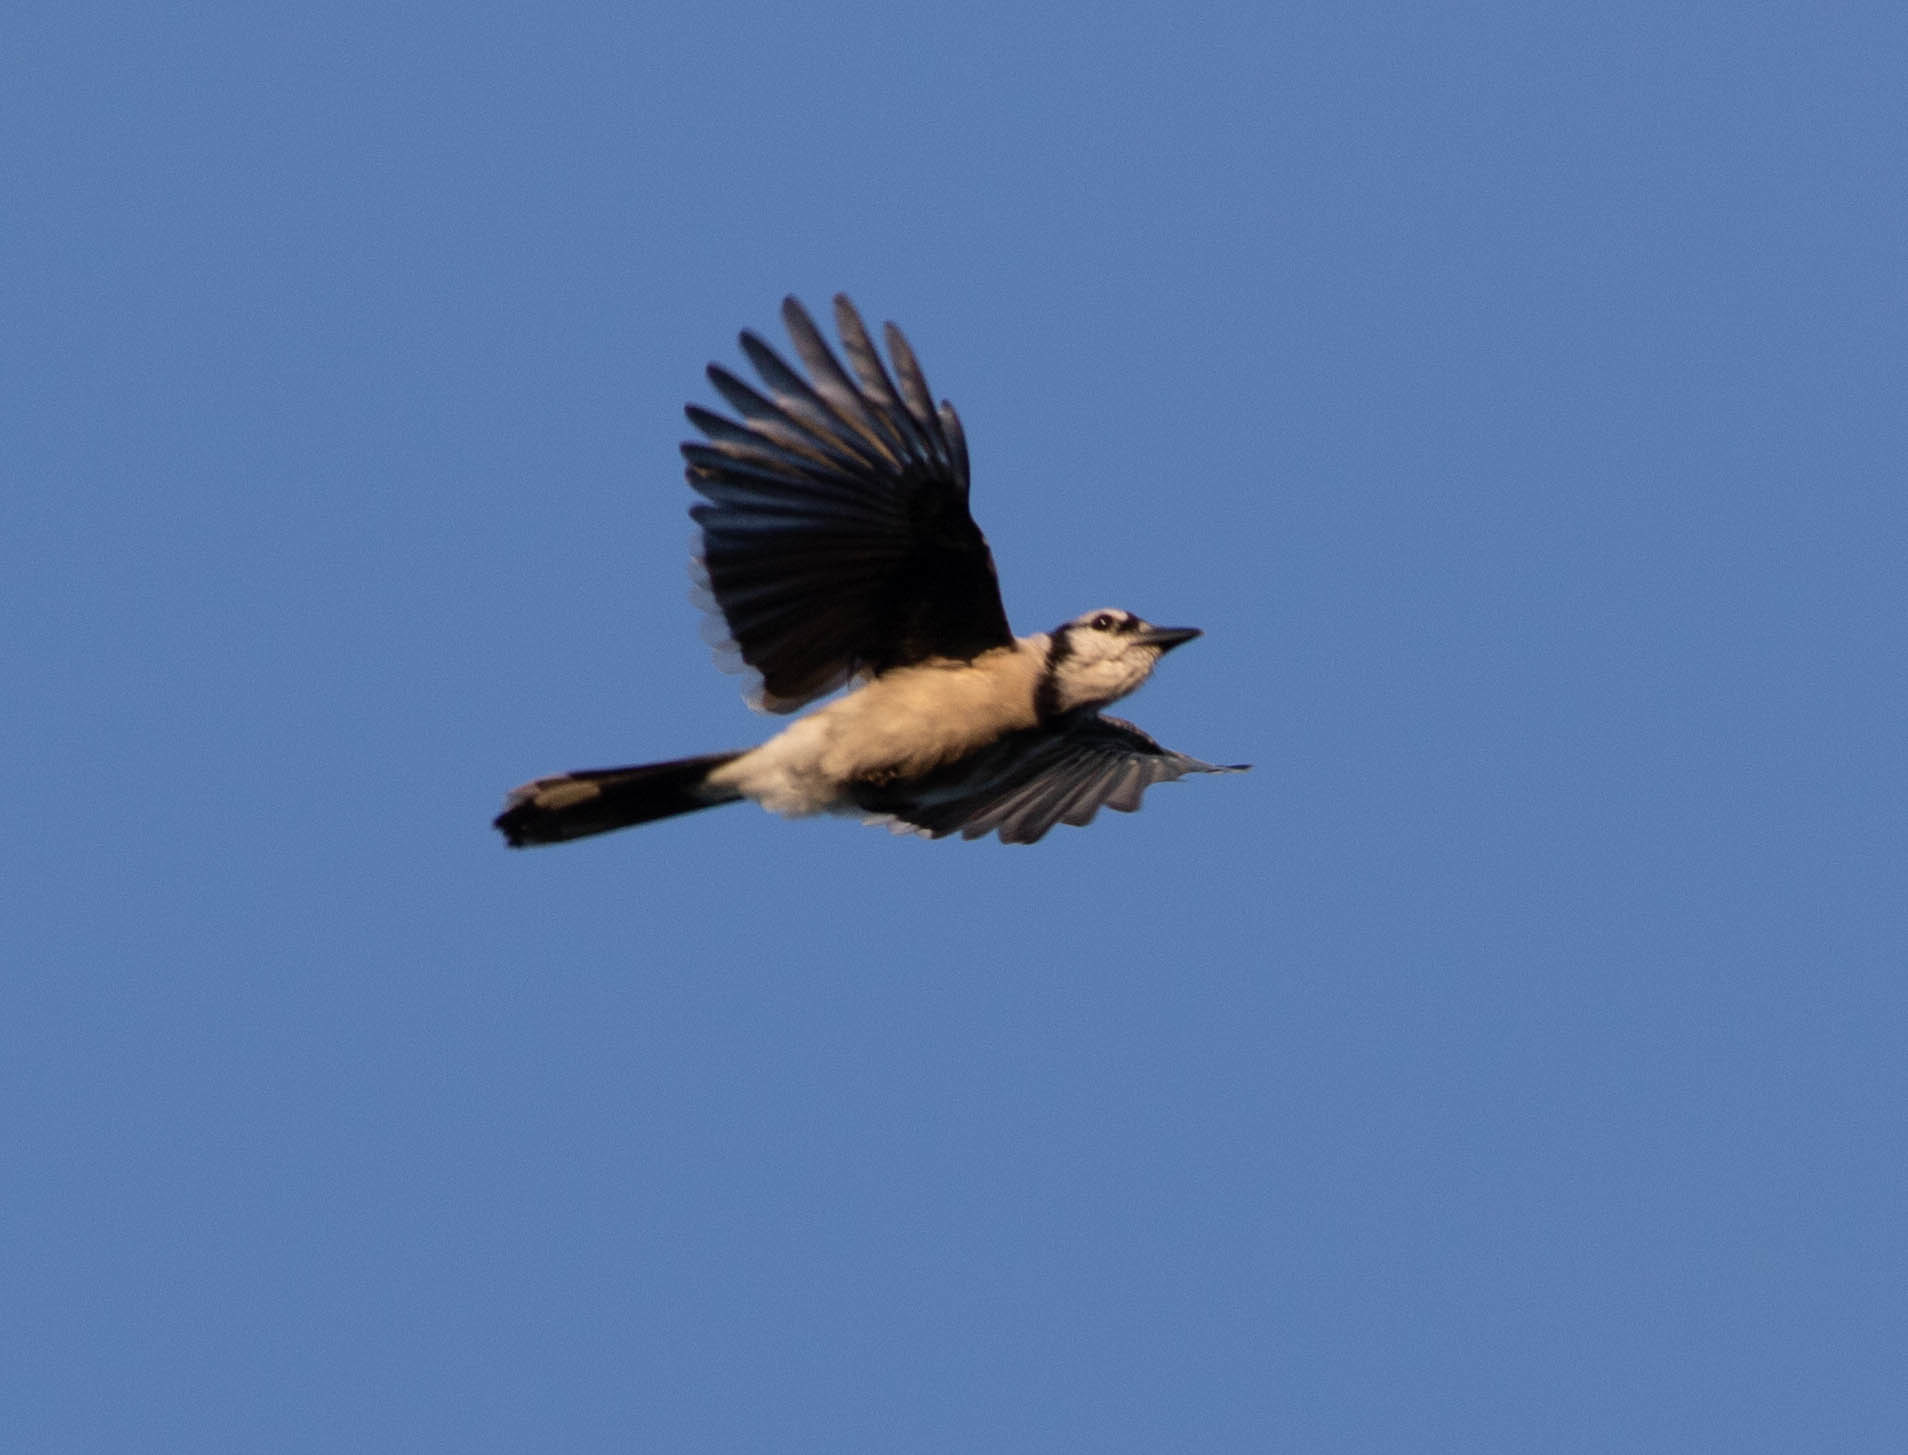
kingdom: Animalia
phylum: Chordata
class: Aves
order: Passeriformes
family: Corvidae
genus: Cyanocitta
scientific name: Cyanocitta cristata
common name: Blue jay
